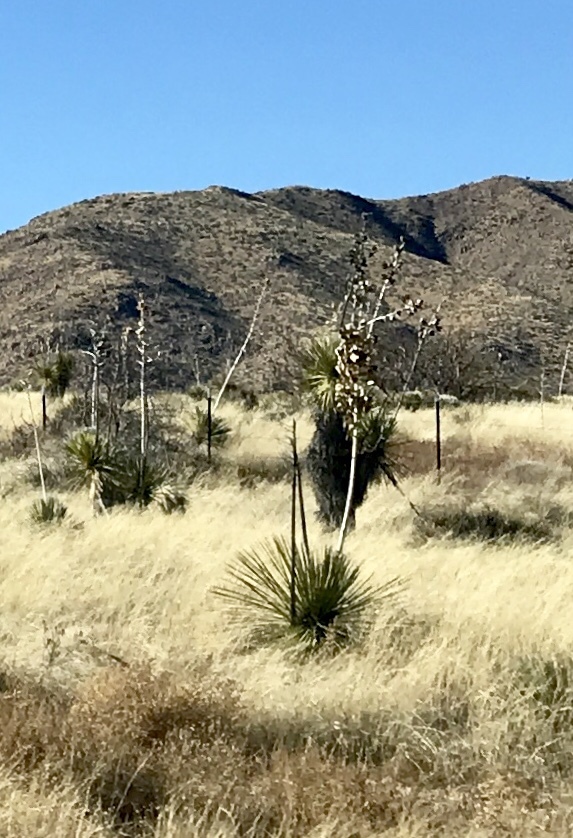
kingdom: Plantae
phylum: Tracheophyta
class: Liliopsida
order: Asparagales
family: Asparagaceae
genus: Yucca
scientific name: Yucca elata
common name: Palmella
